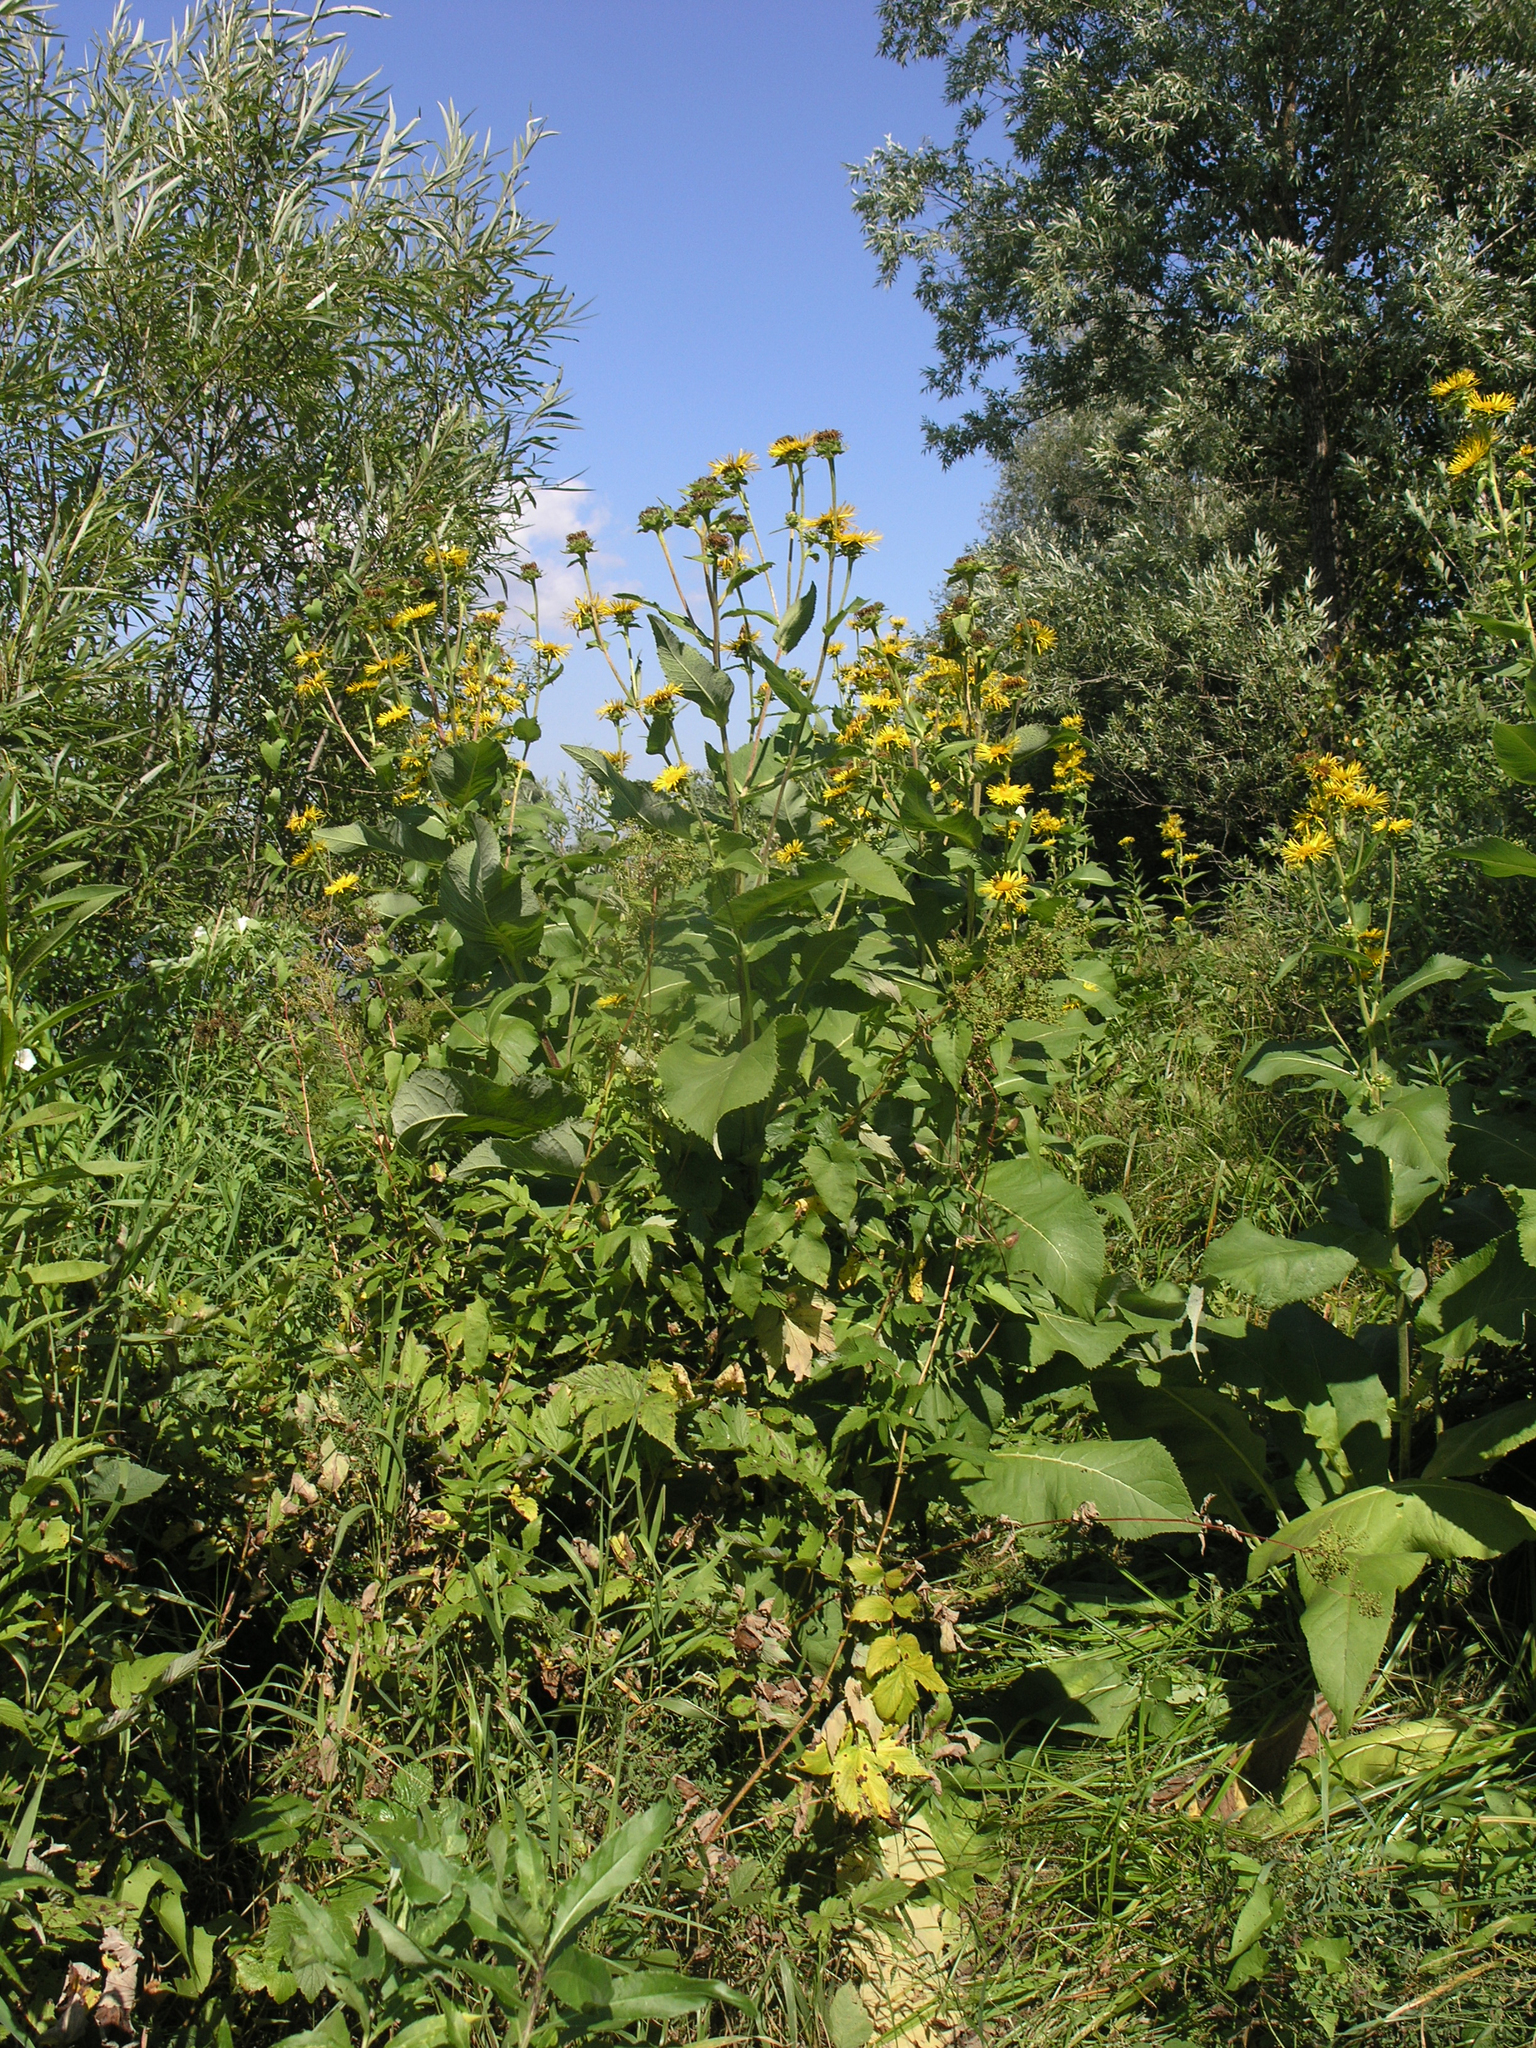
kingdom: Plantae
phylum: Tracheophyta
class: Magnoliopsida
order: Asterales
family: Asteraceae
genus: Inula
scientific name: Inula helenium
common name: Elecampane
